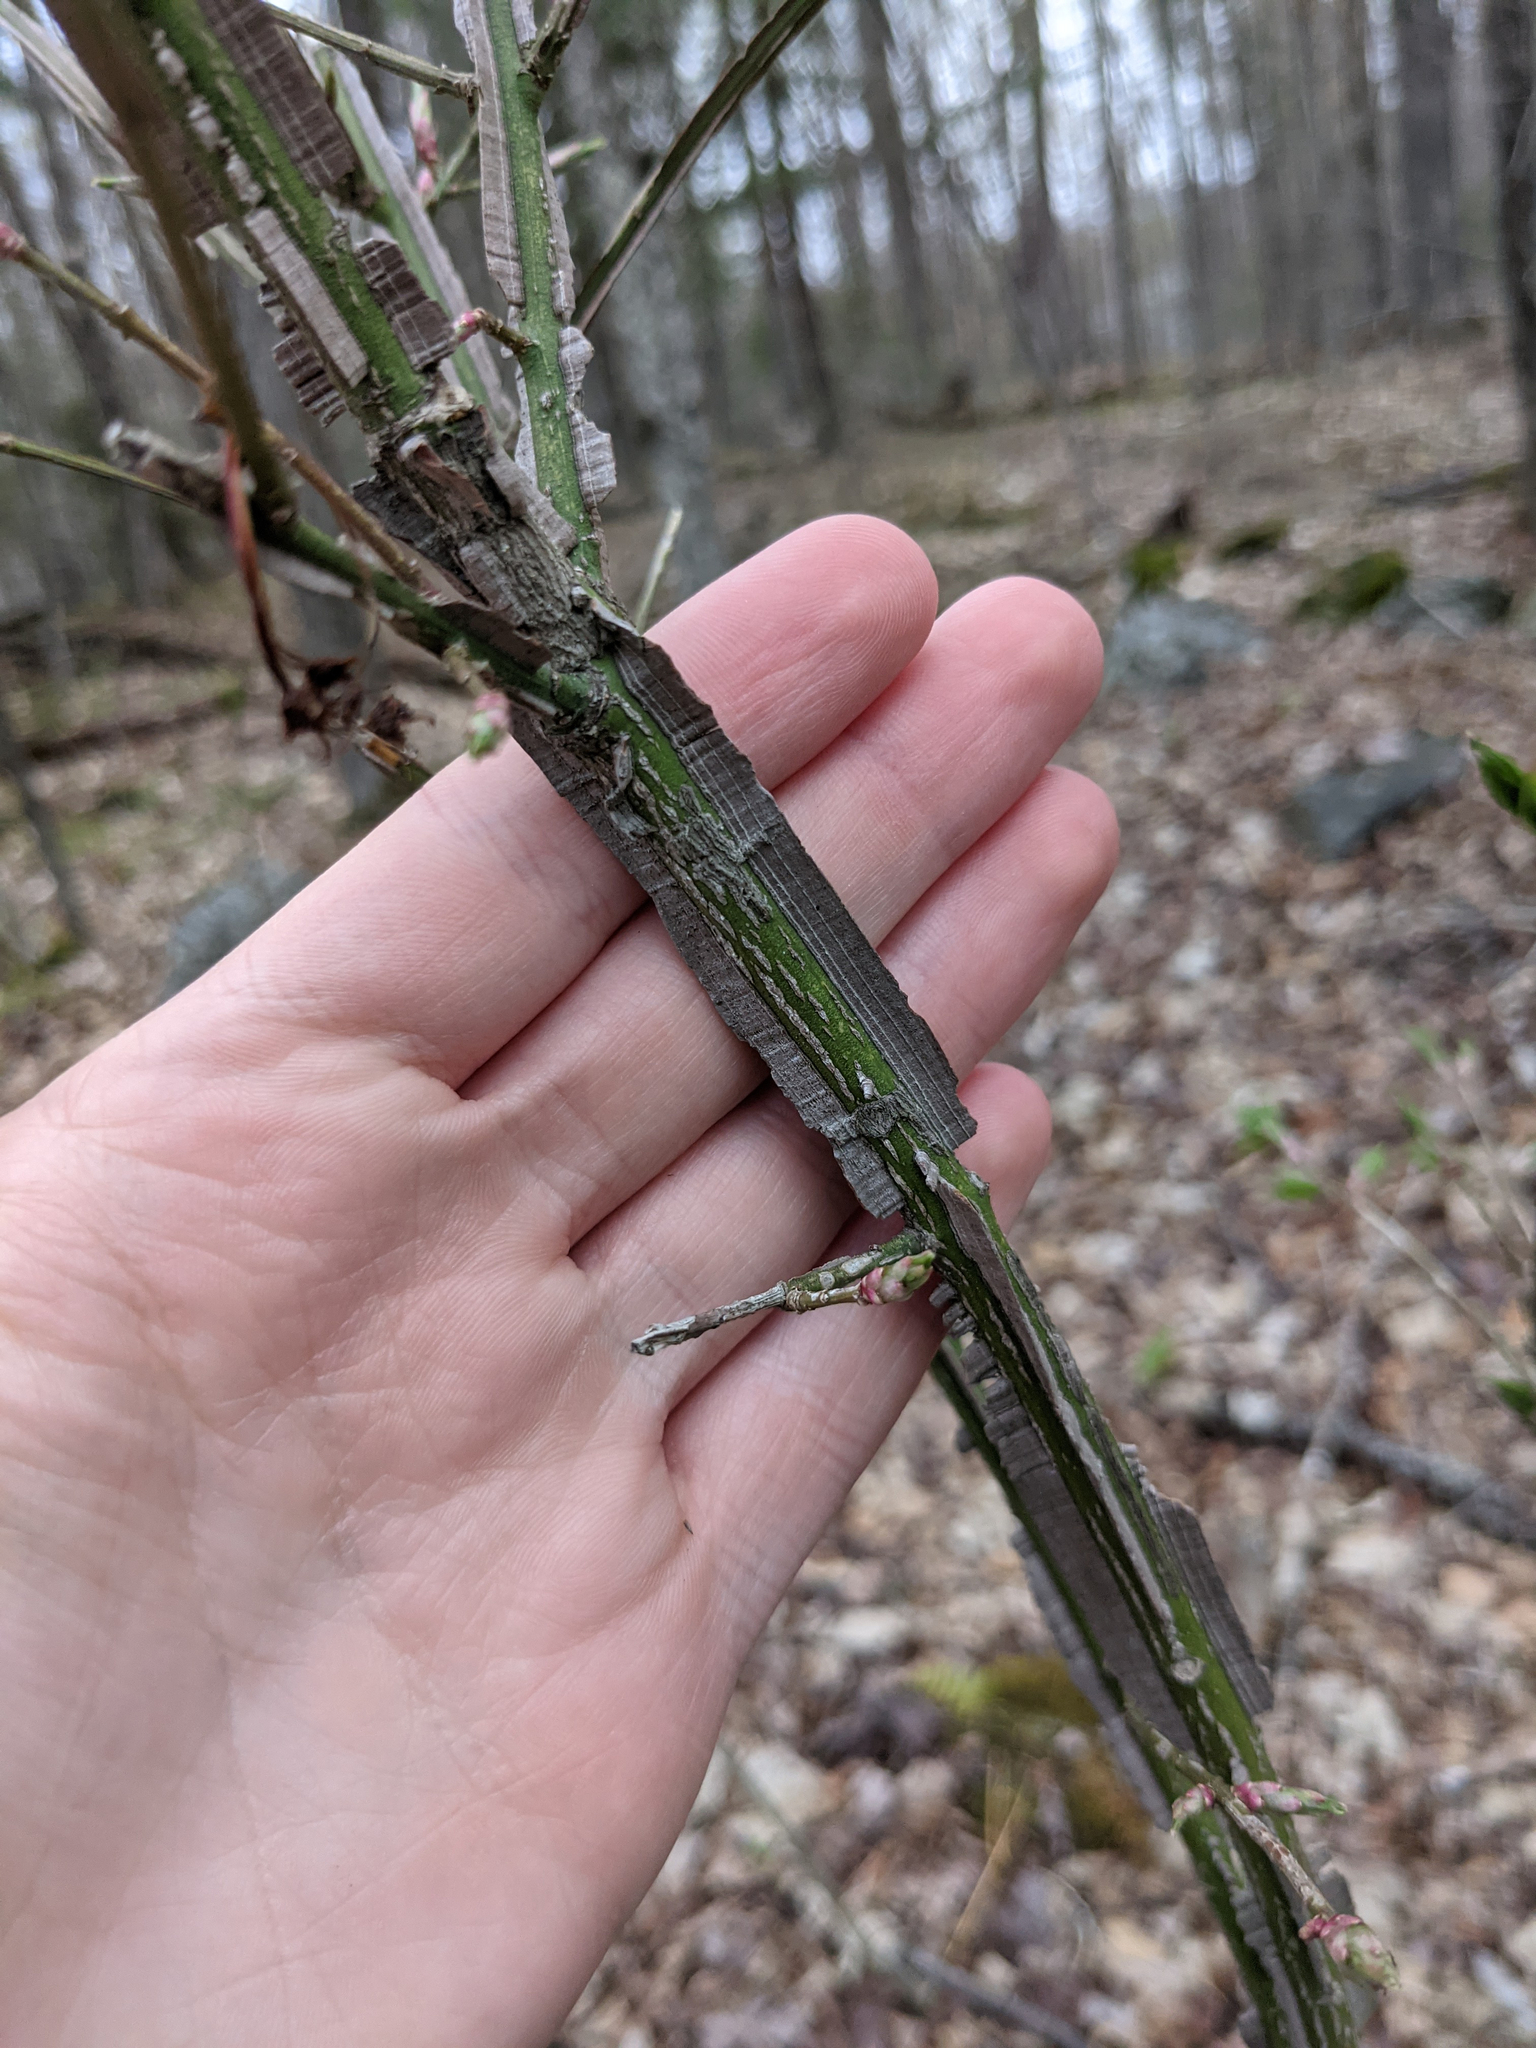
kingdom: Plantae
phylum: Tracheophyta
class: Magnoliopsida
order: Celastrales
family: Celastraceae
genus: Euonymus
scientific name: Euonymus alatus
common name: Winged euonymus
